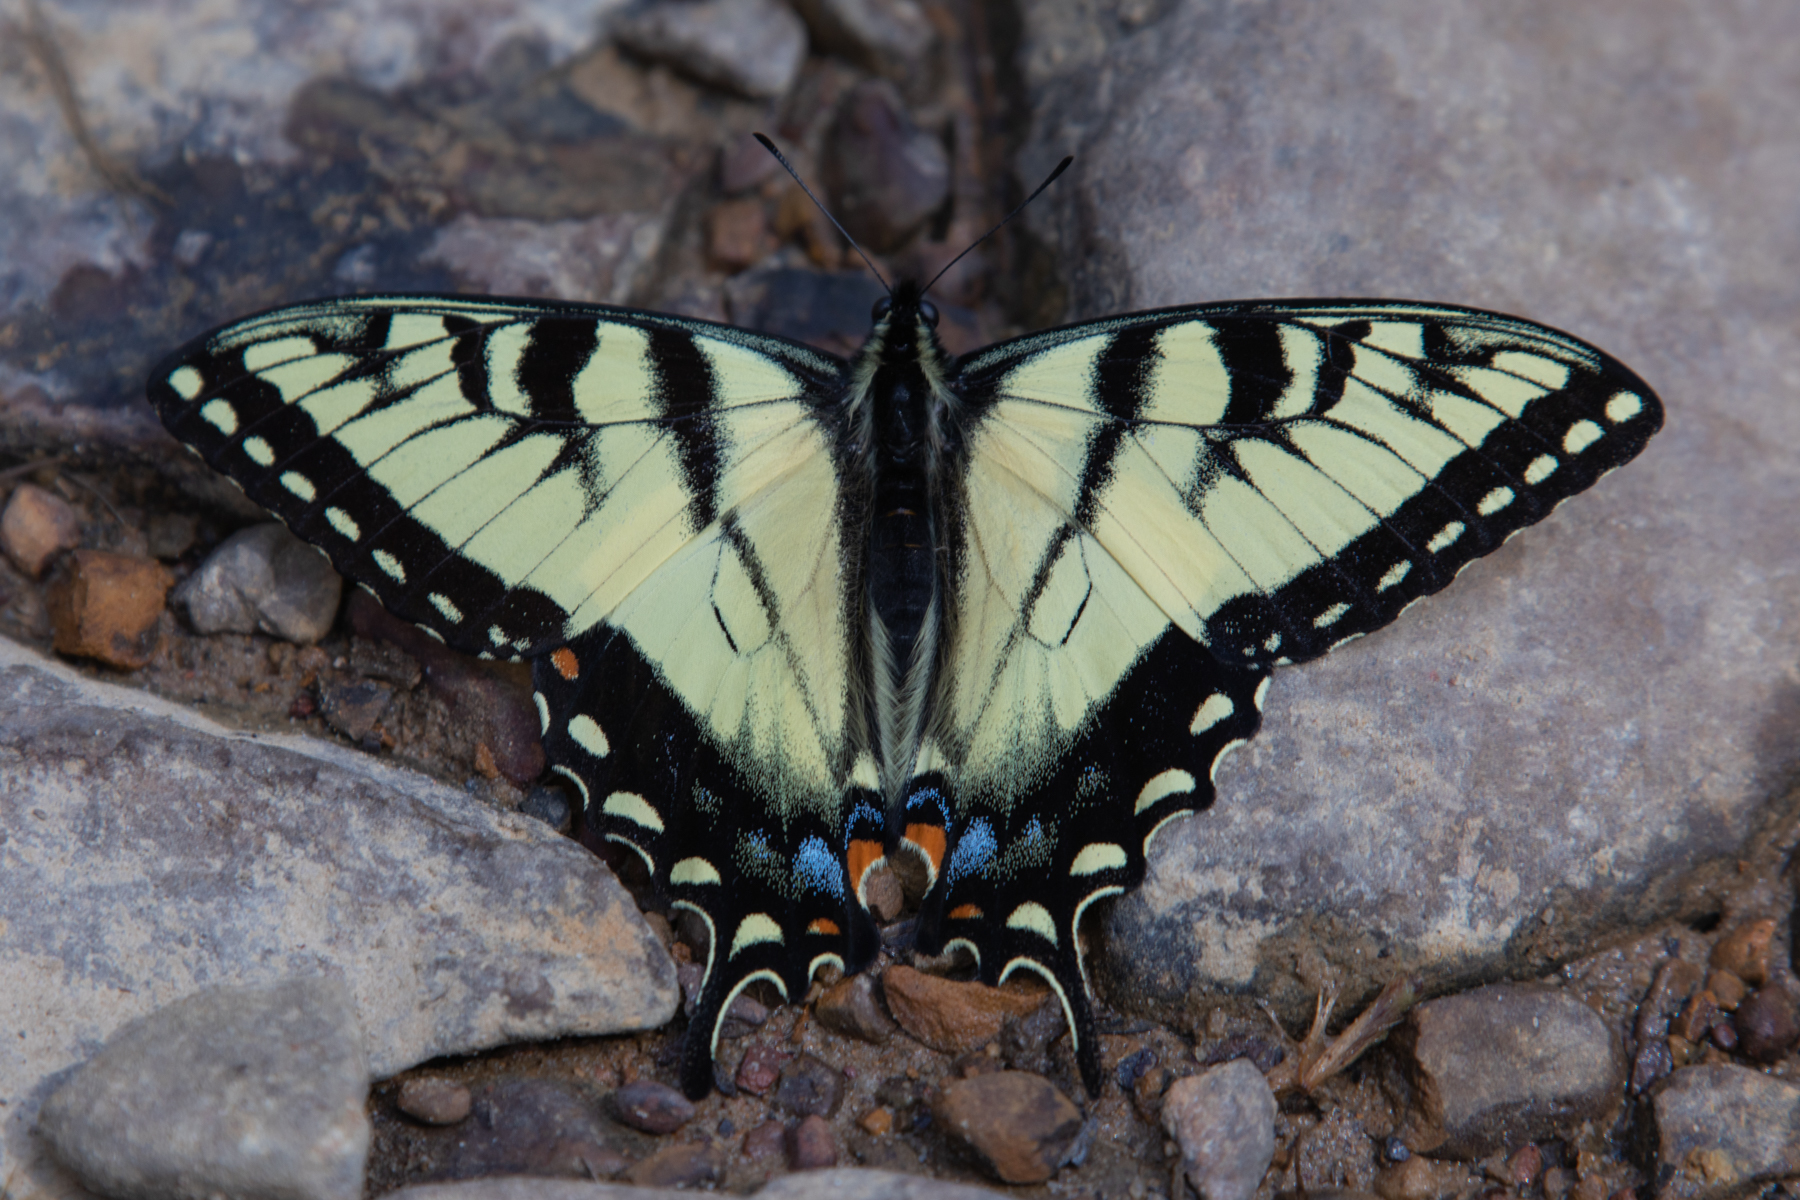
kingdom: Animalia
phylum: Arthropoda
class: Insecta
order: Lepidoptera
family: Papilionidae
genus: Papilio
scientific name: Papilio glaucus
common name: Tiger swallowtail
